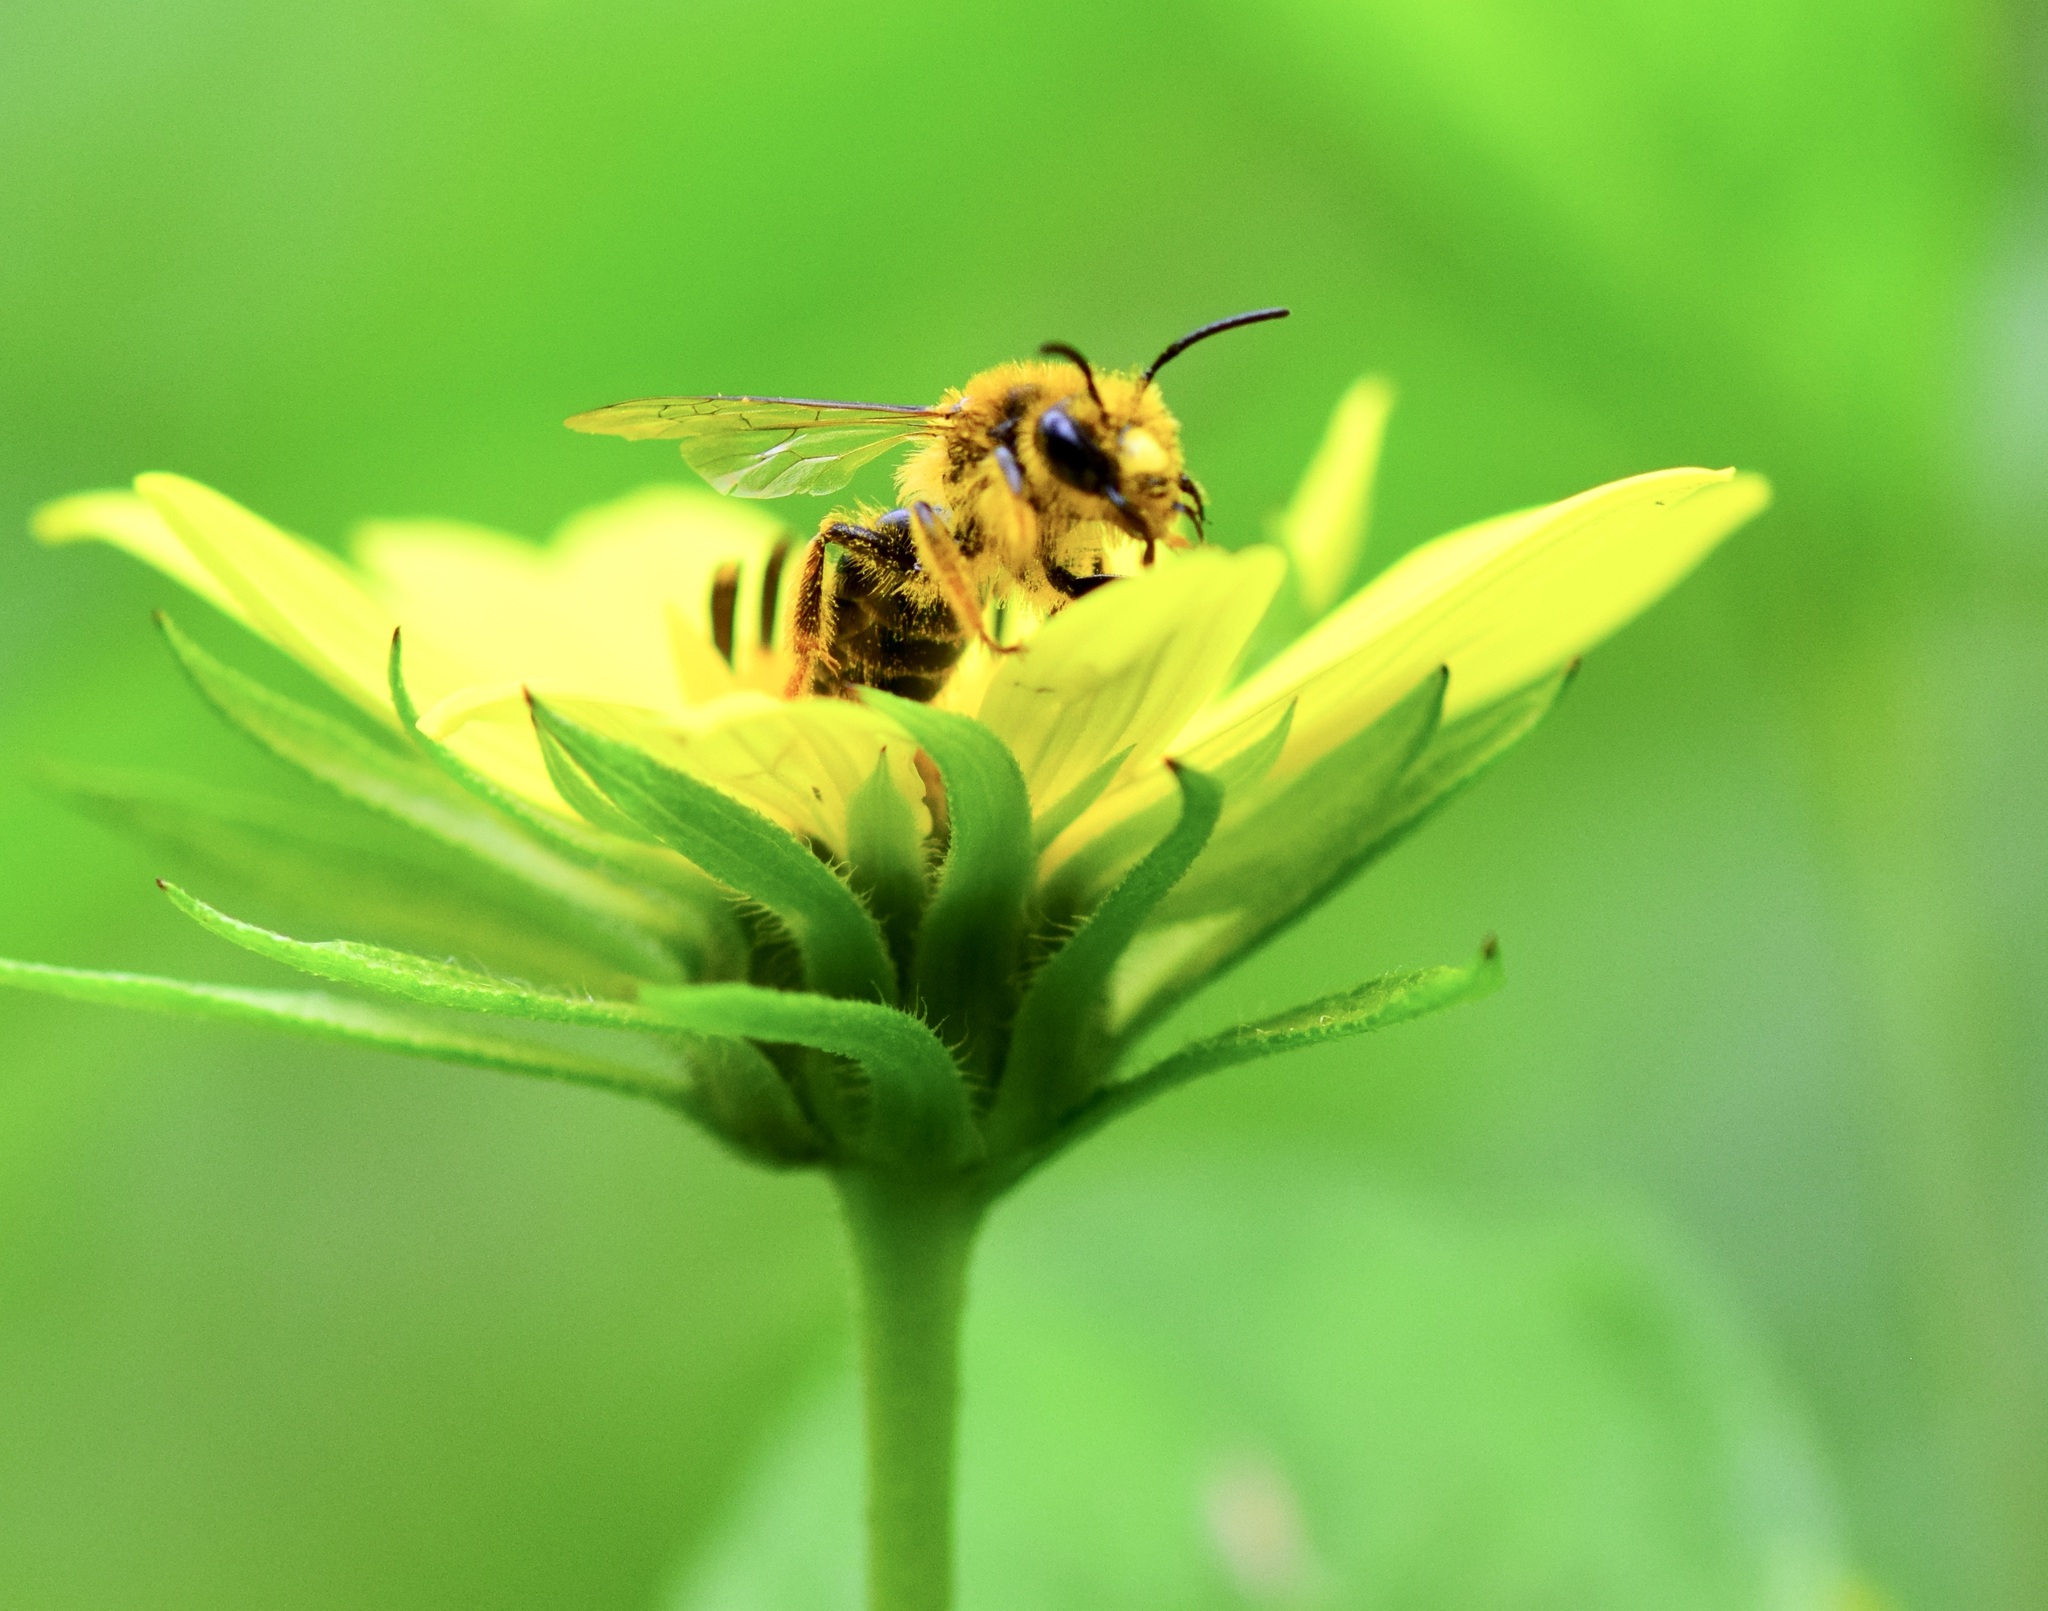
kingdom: Animalia
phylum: Arthropoda
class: Insecta
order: Hymenoptera
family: Andrenidae
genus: Andrena
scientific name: Andrena helianthi
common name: Sunflower mining bee
